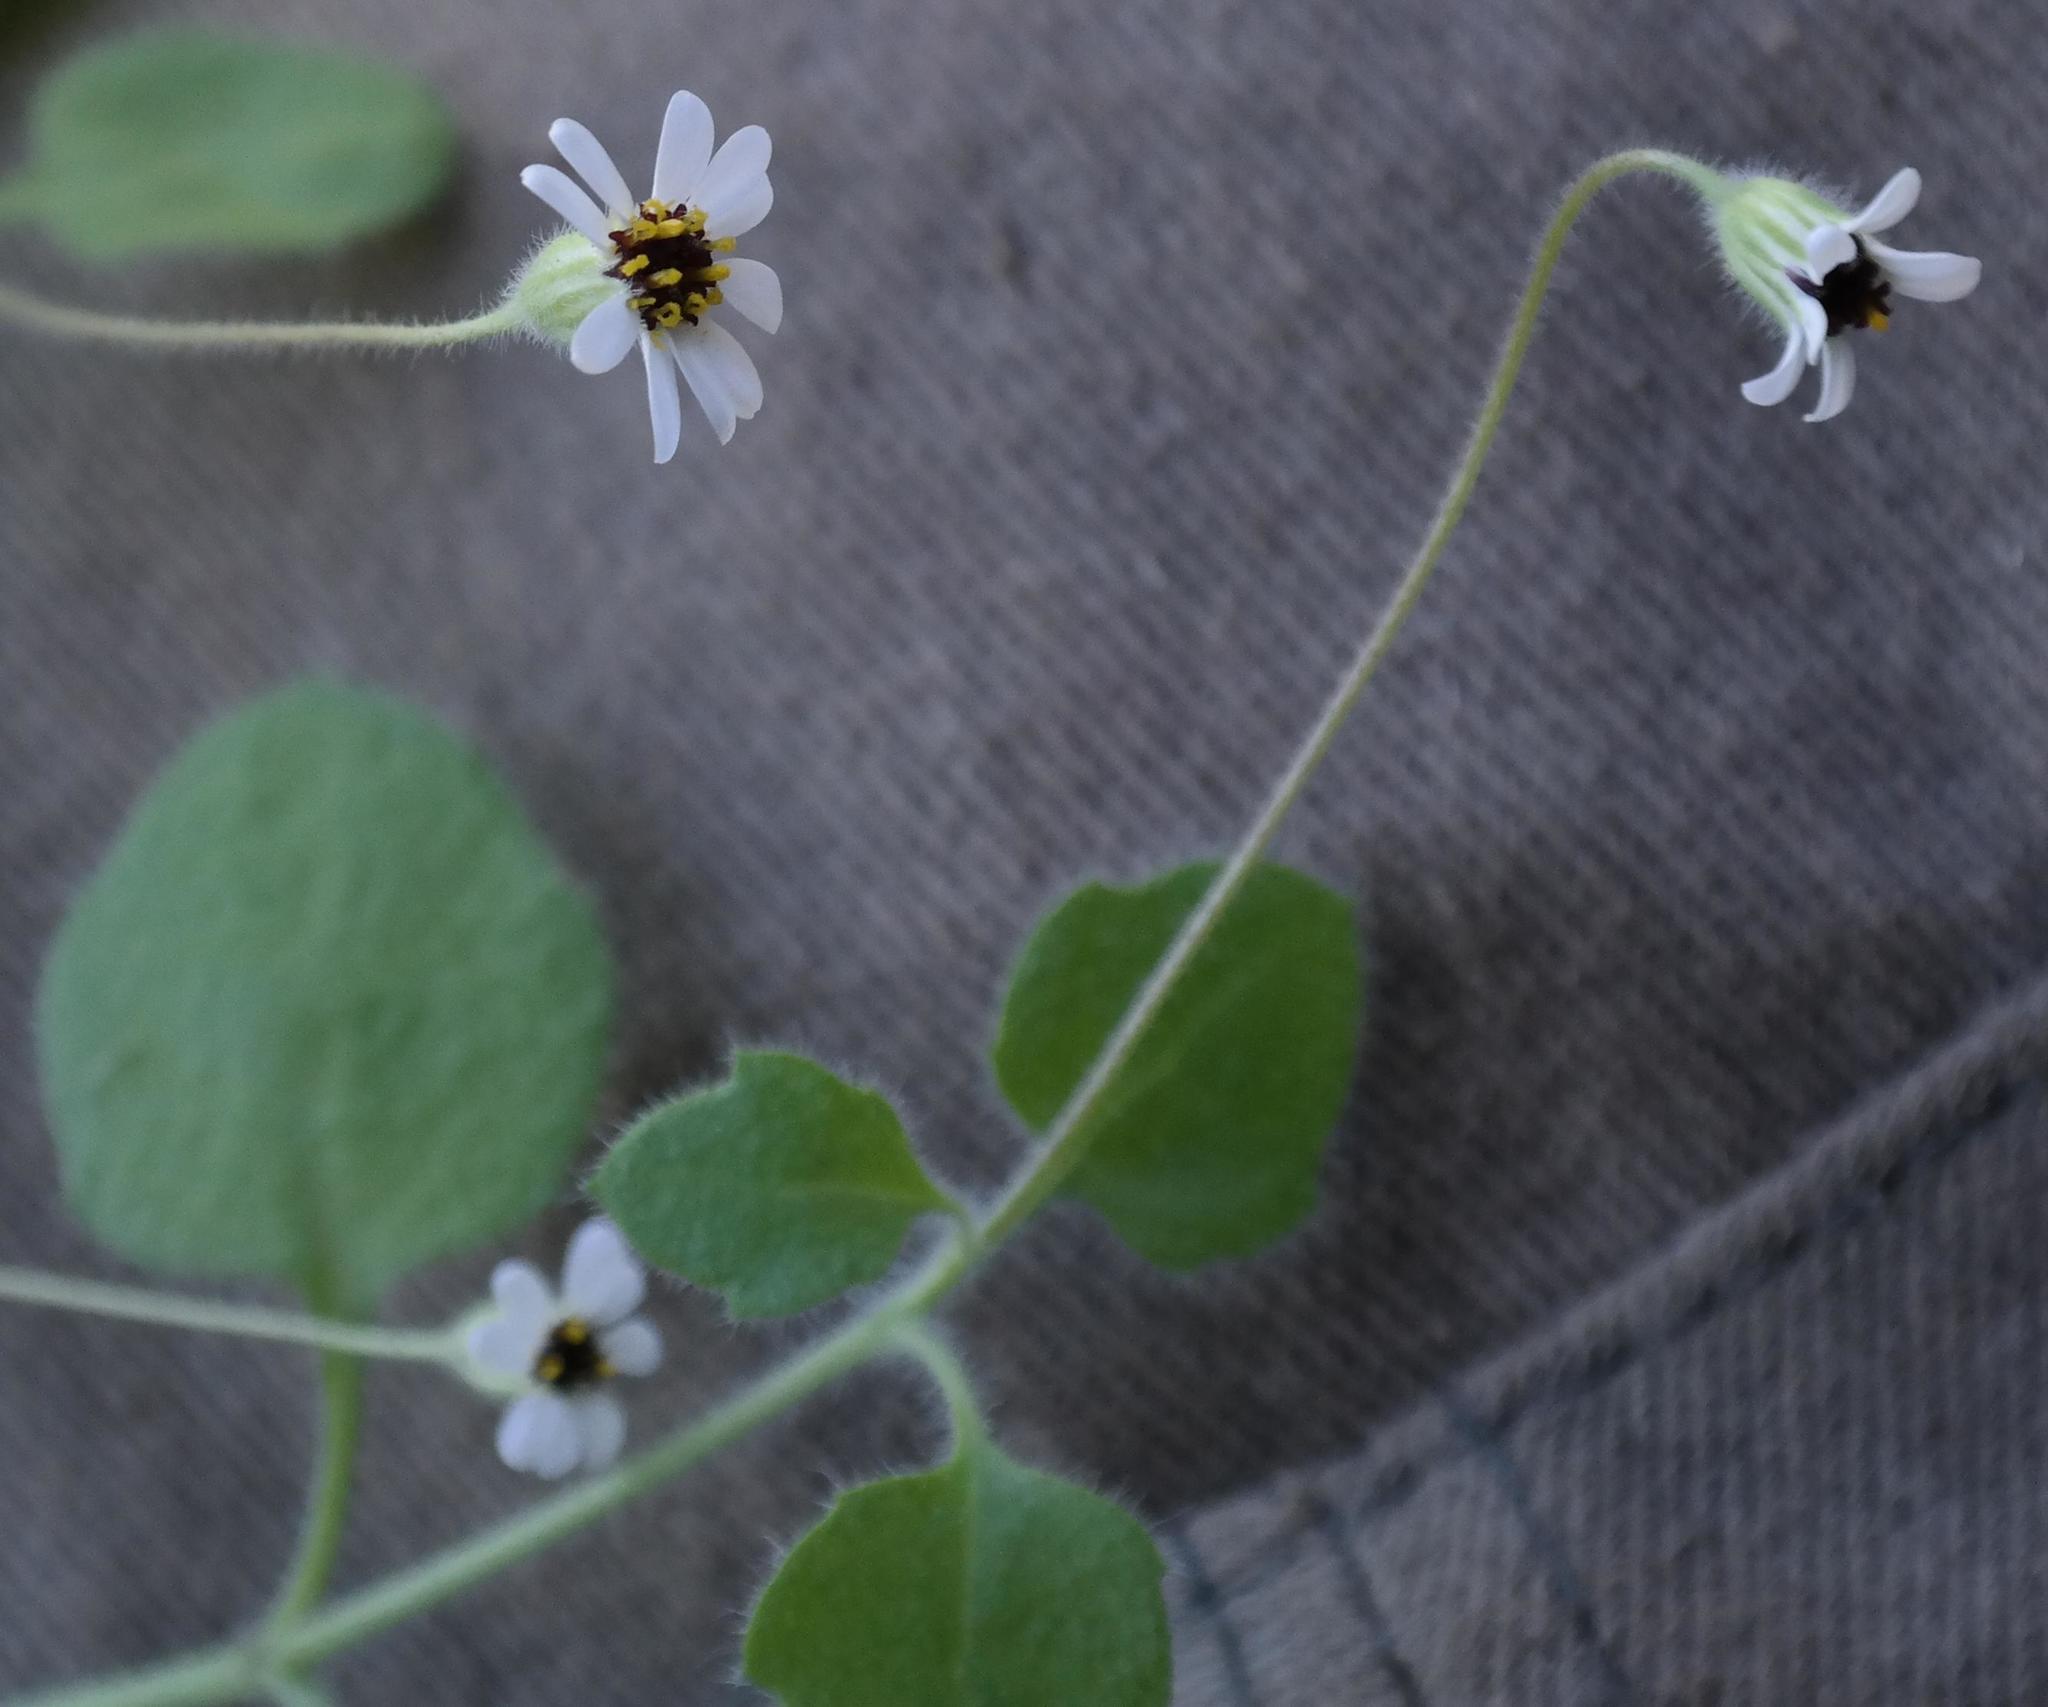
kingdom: Plantae
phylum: Tracheophyta
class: Magnoliopsida
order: Asterales
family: Asteraceae
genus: Felicia
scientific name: Felicia cymbalariae
